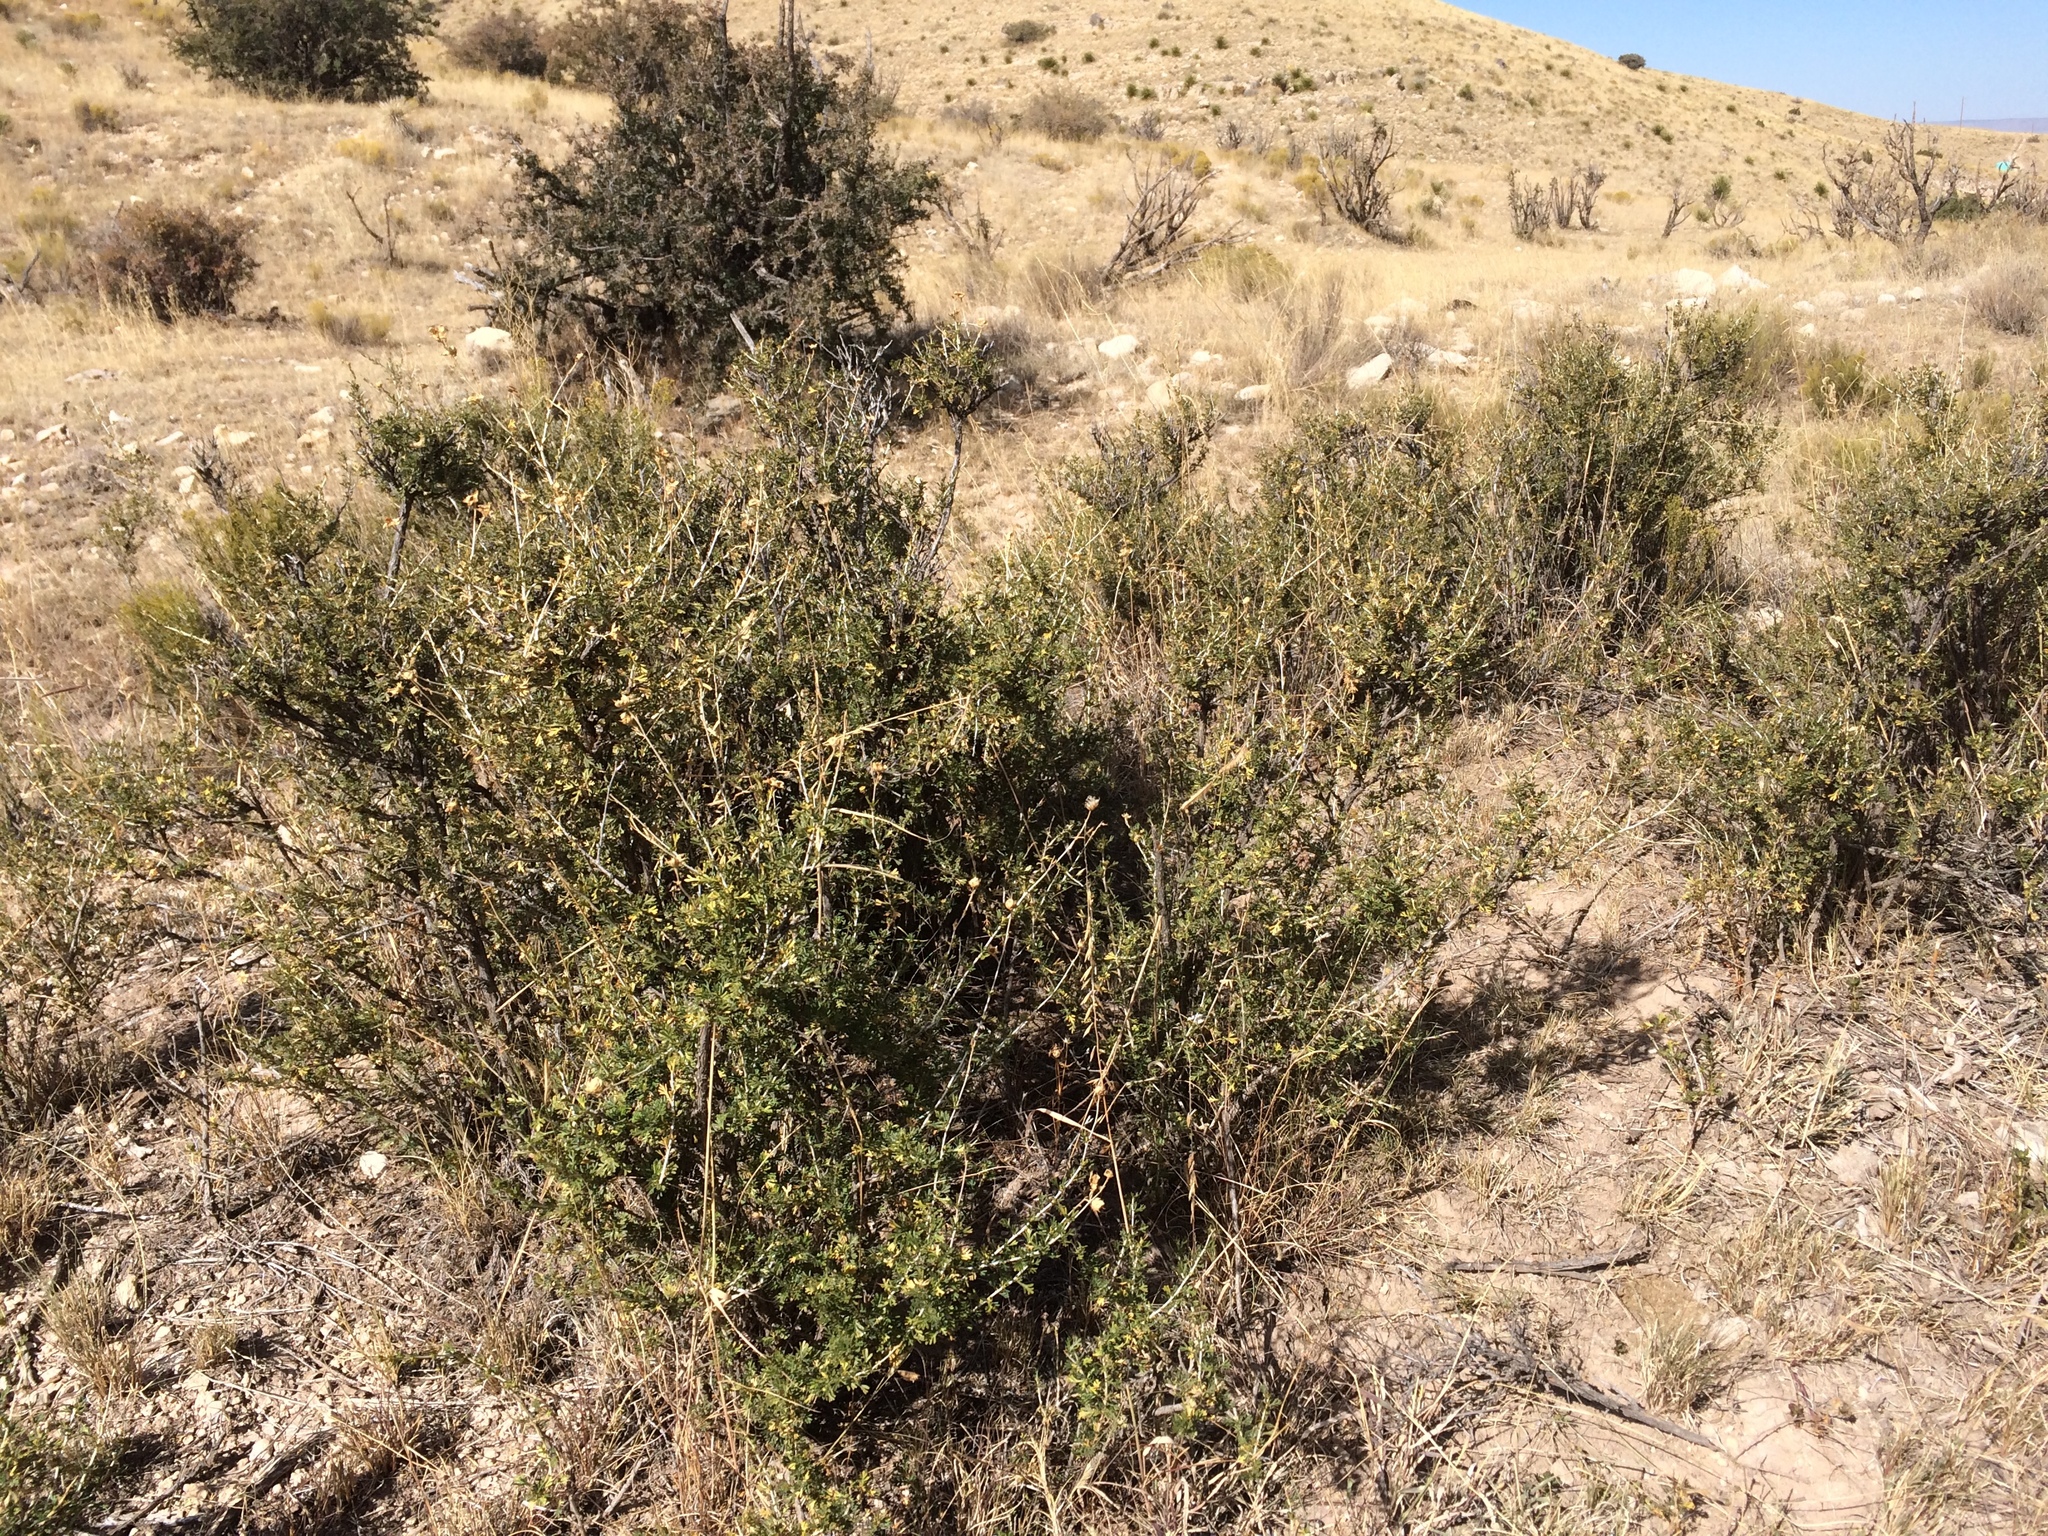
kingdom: Plantae
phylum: Tracheophyta
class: Magnoliopsida
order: Rosales
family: Rosaceae
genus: Fallugia
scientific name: Fallugia paradoxa
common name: Apache-plume
